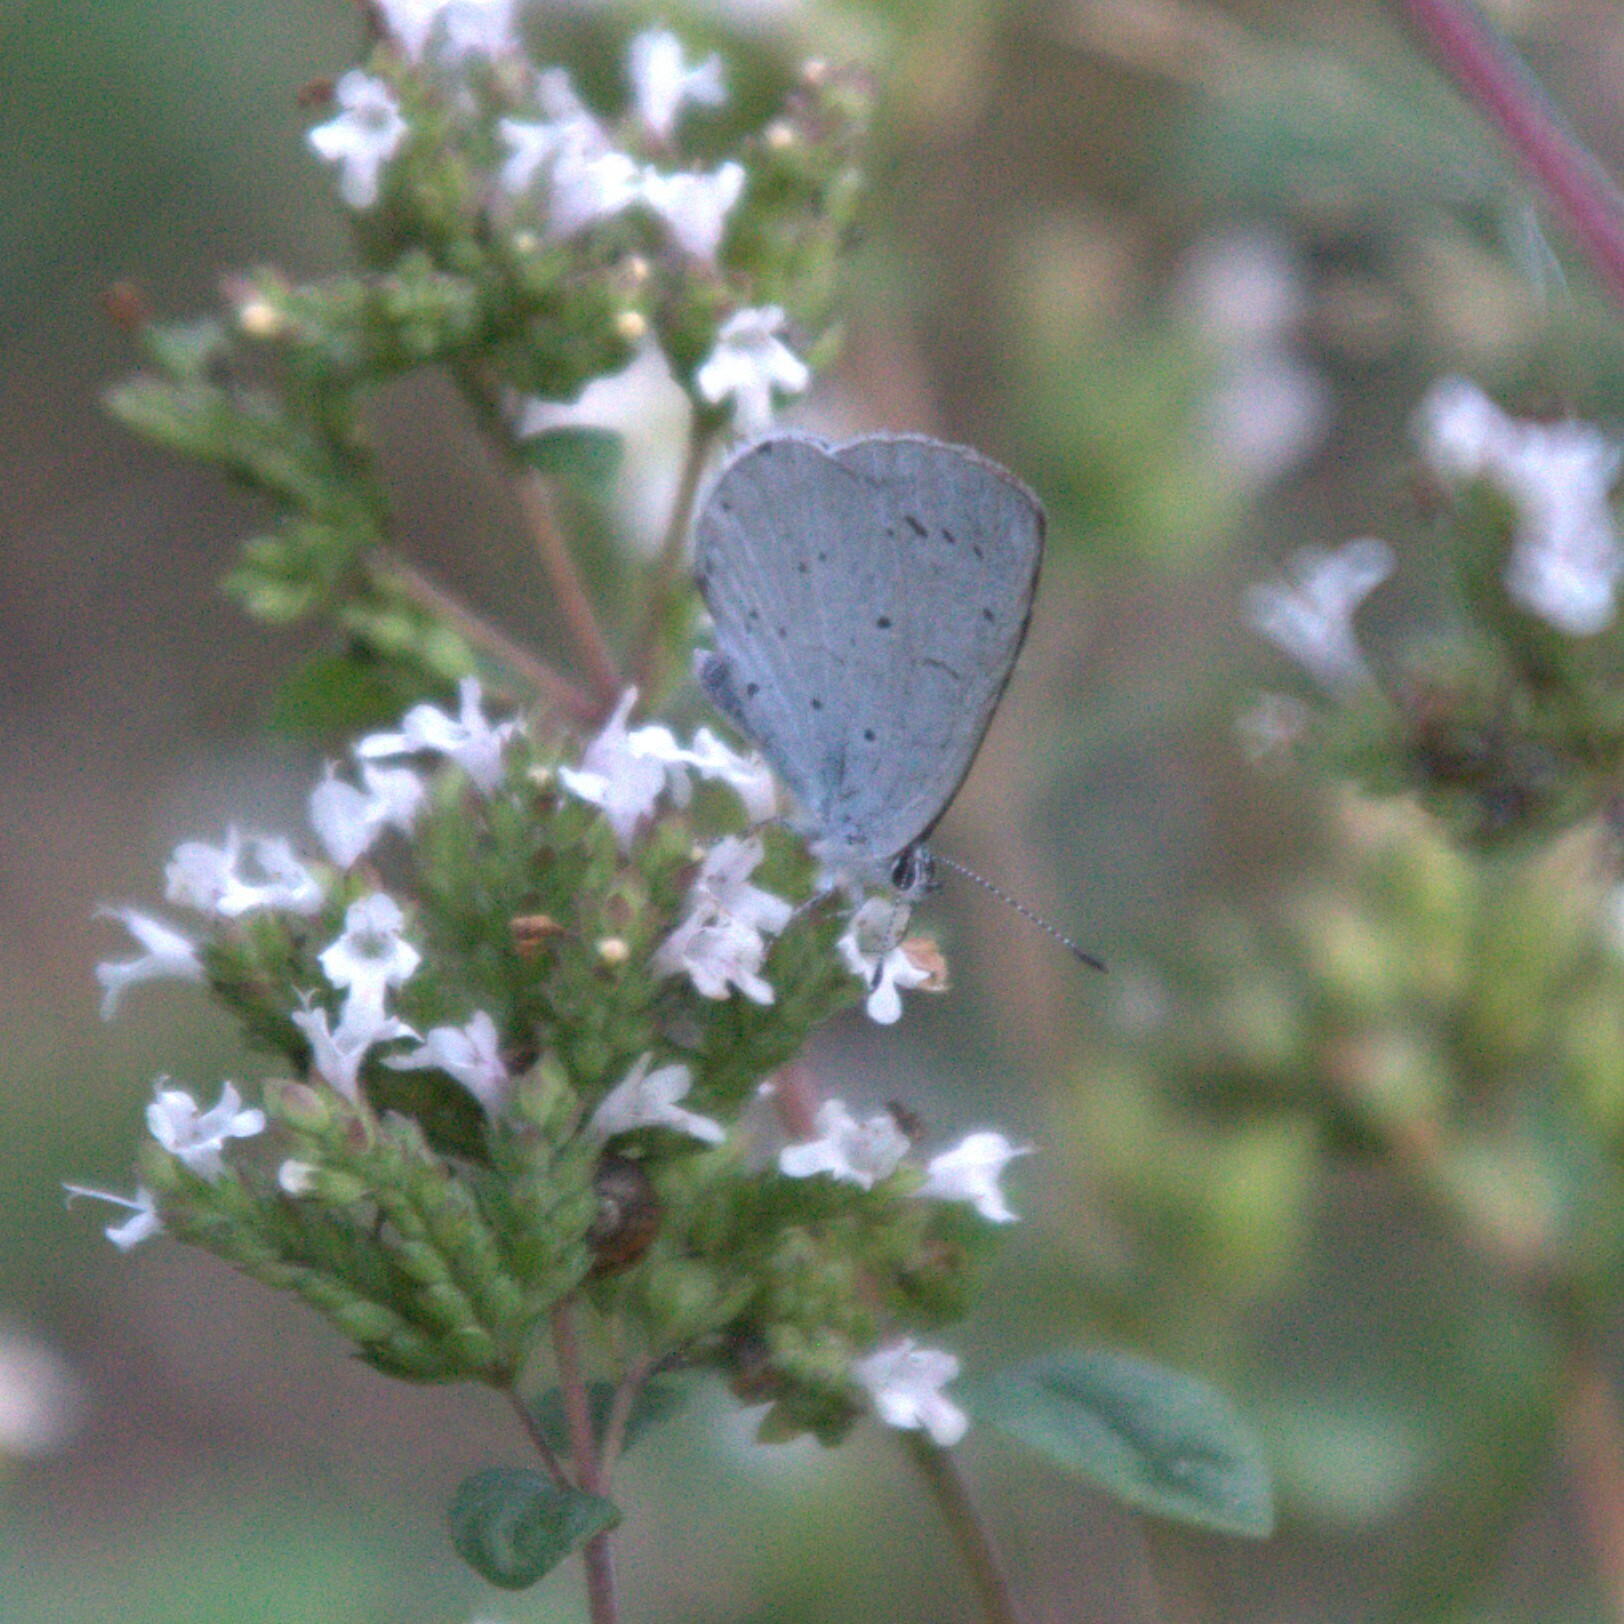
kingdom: Animalia
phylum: Arthropoda
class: Insecta
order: Lepidoptera
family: Lycaenidae
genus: Celastrina
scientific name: Celastrina argiolus
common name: Holly blue
